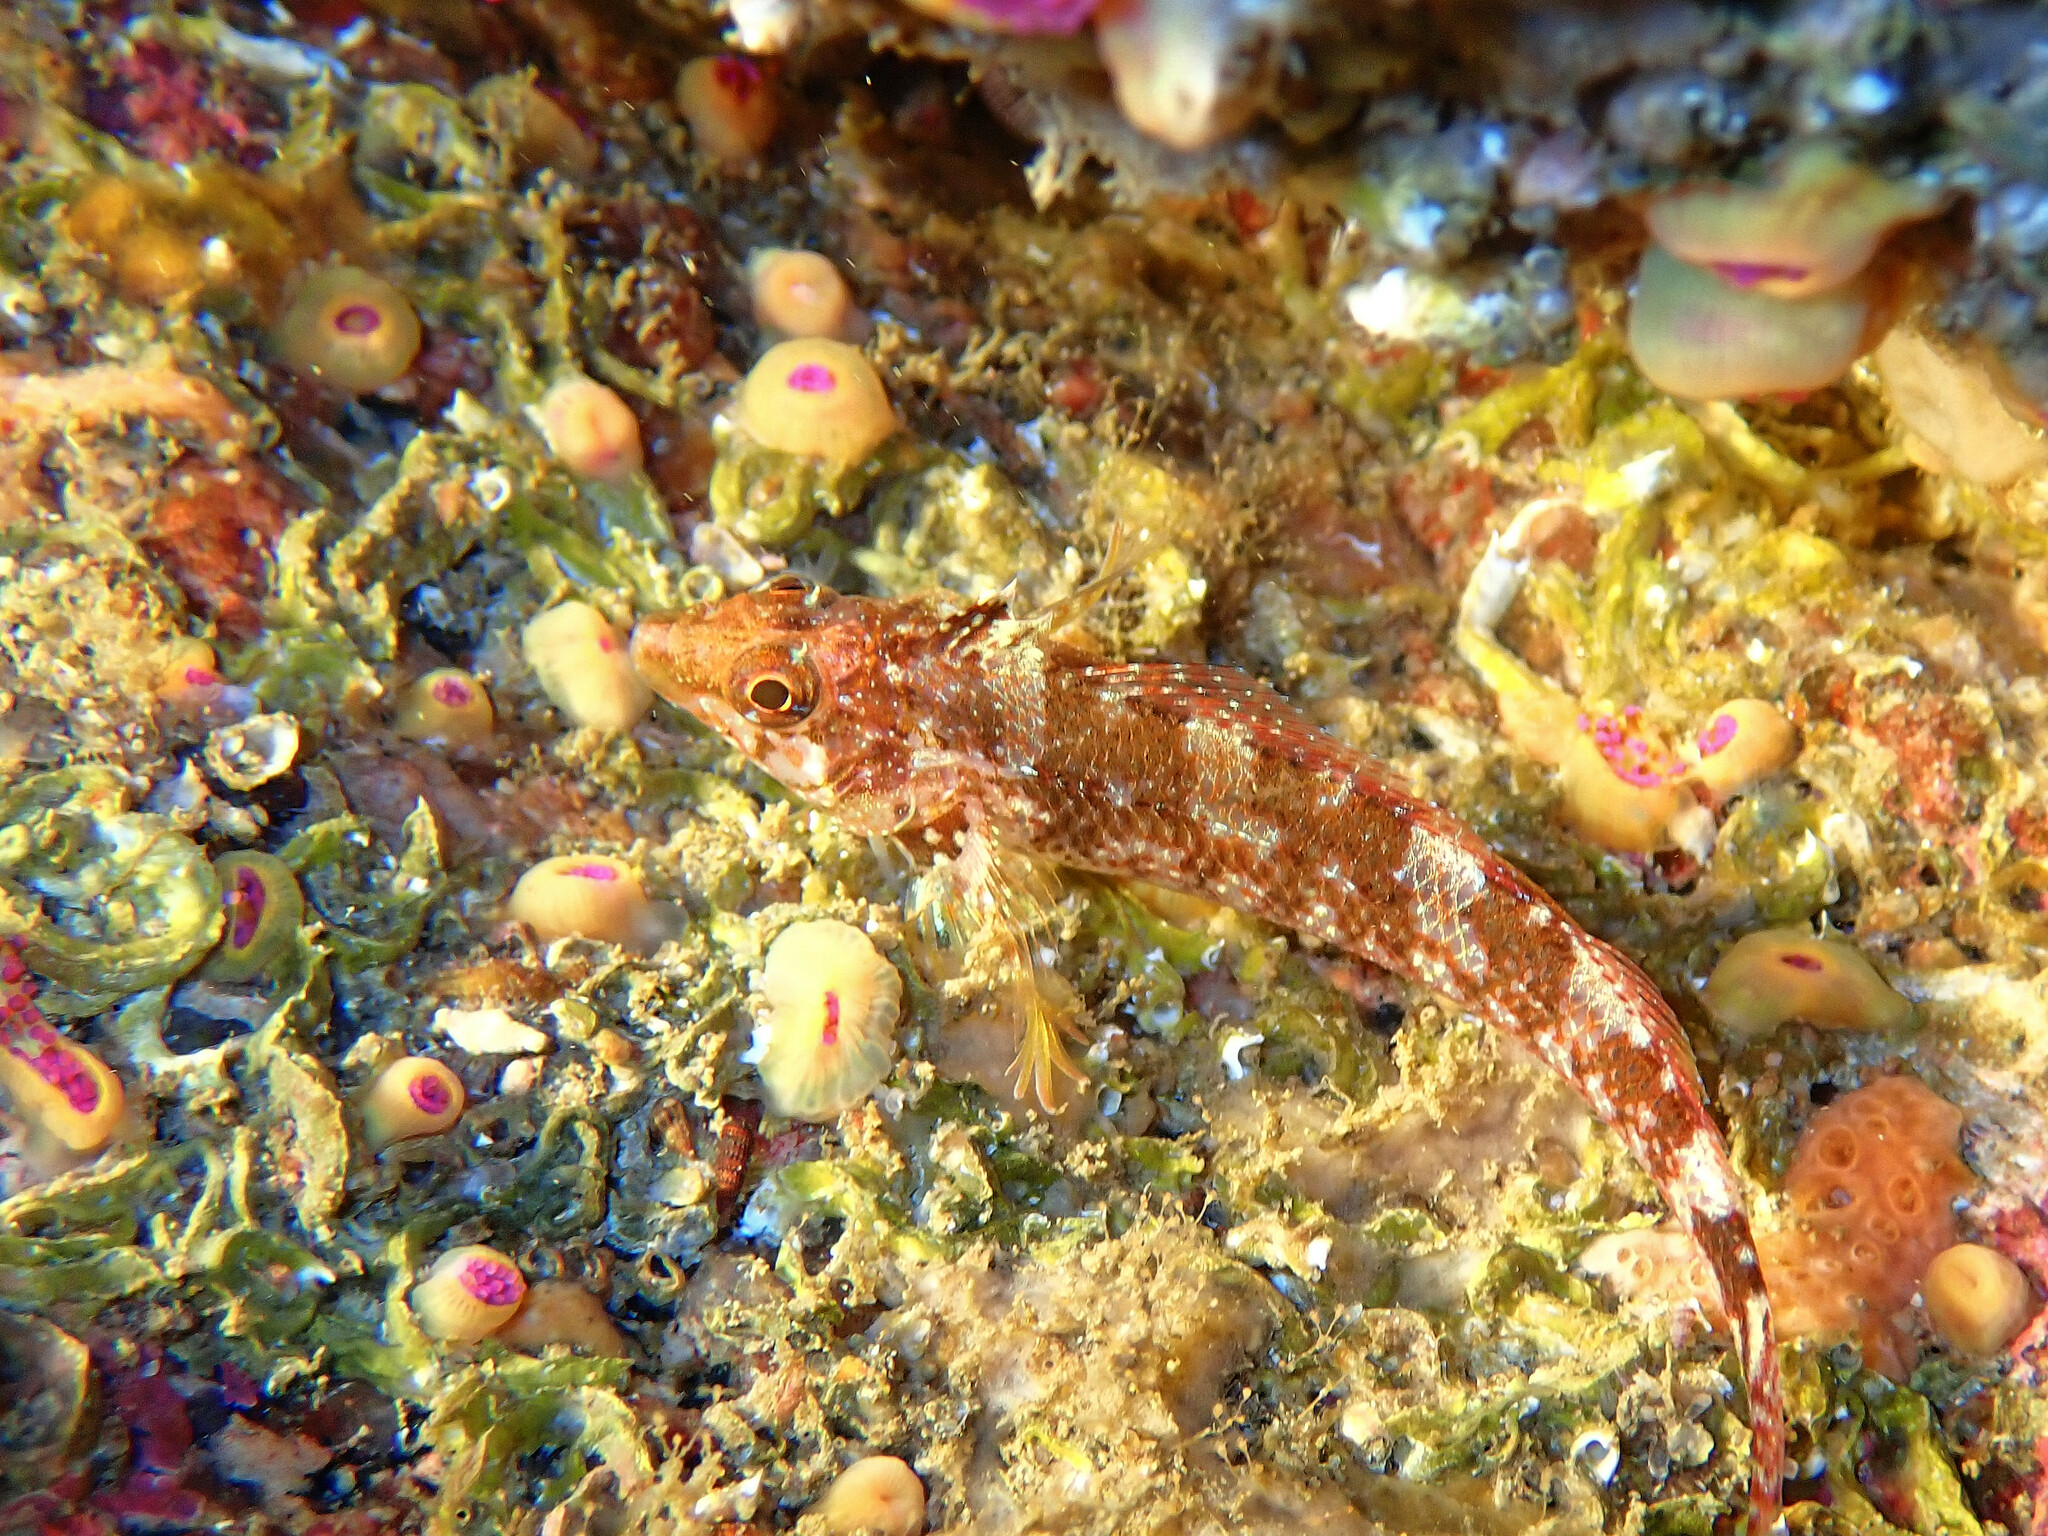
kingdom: Animalia
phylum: Chordata
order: Perciformes
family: Tripterygiidae
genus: Tripterygion
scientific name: Tripterygion delaisi
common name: Black-face blenny
